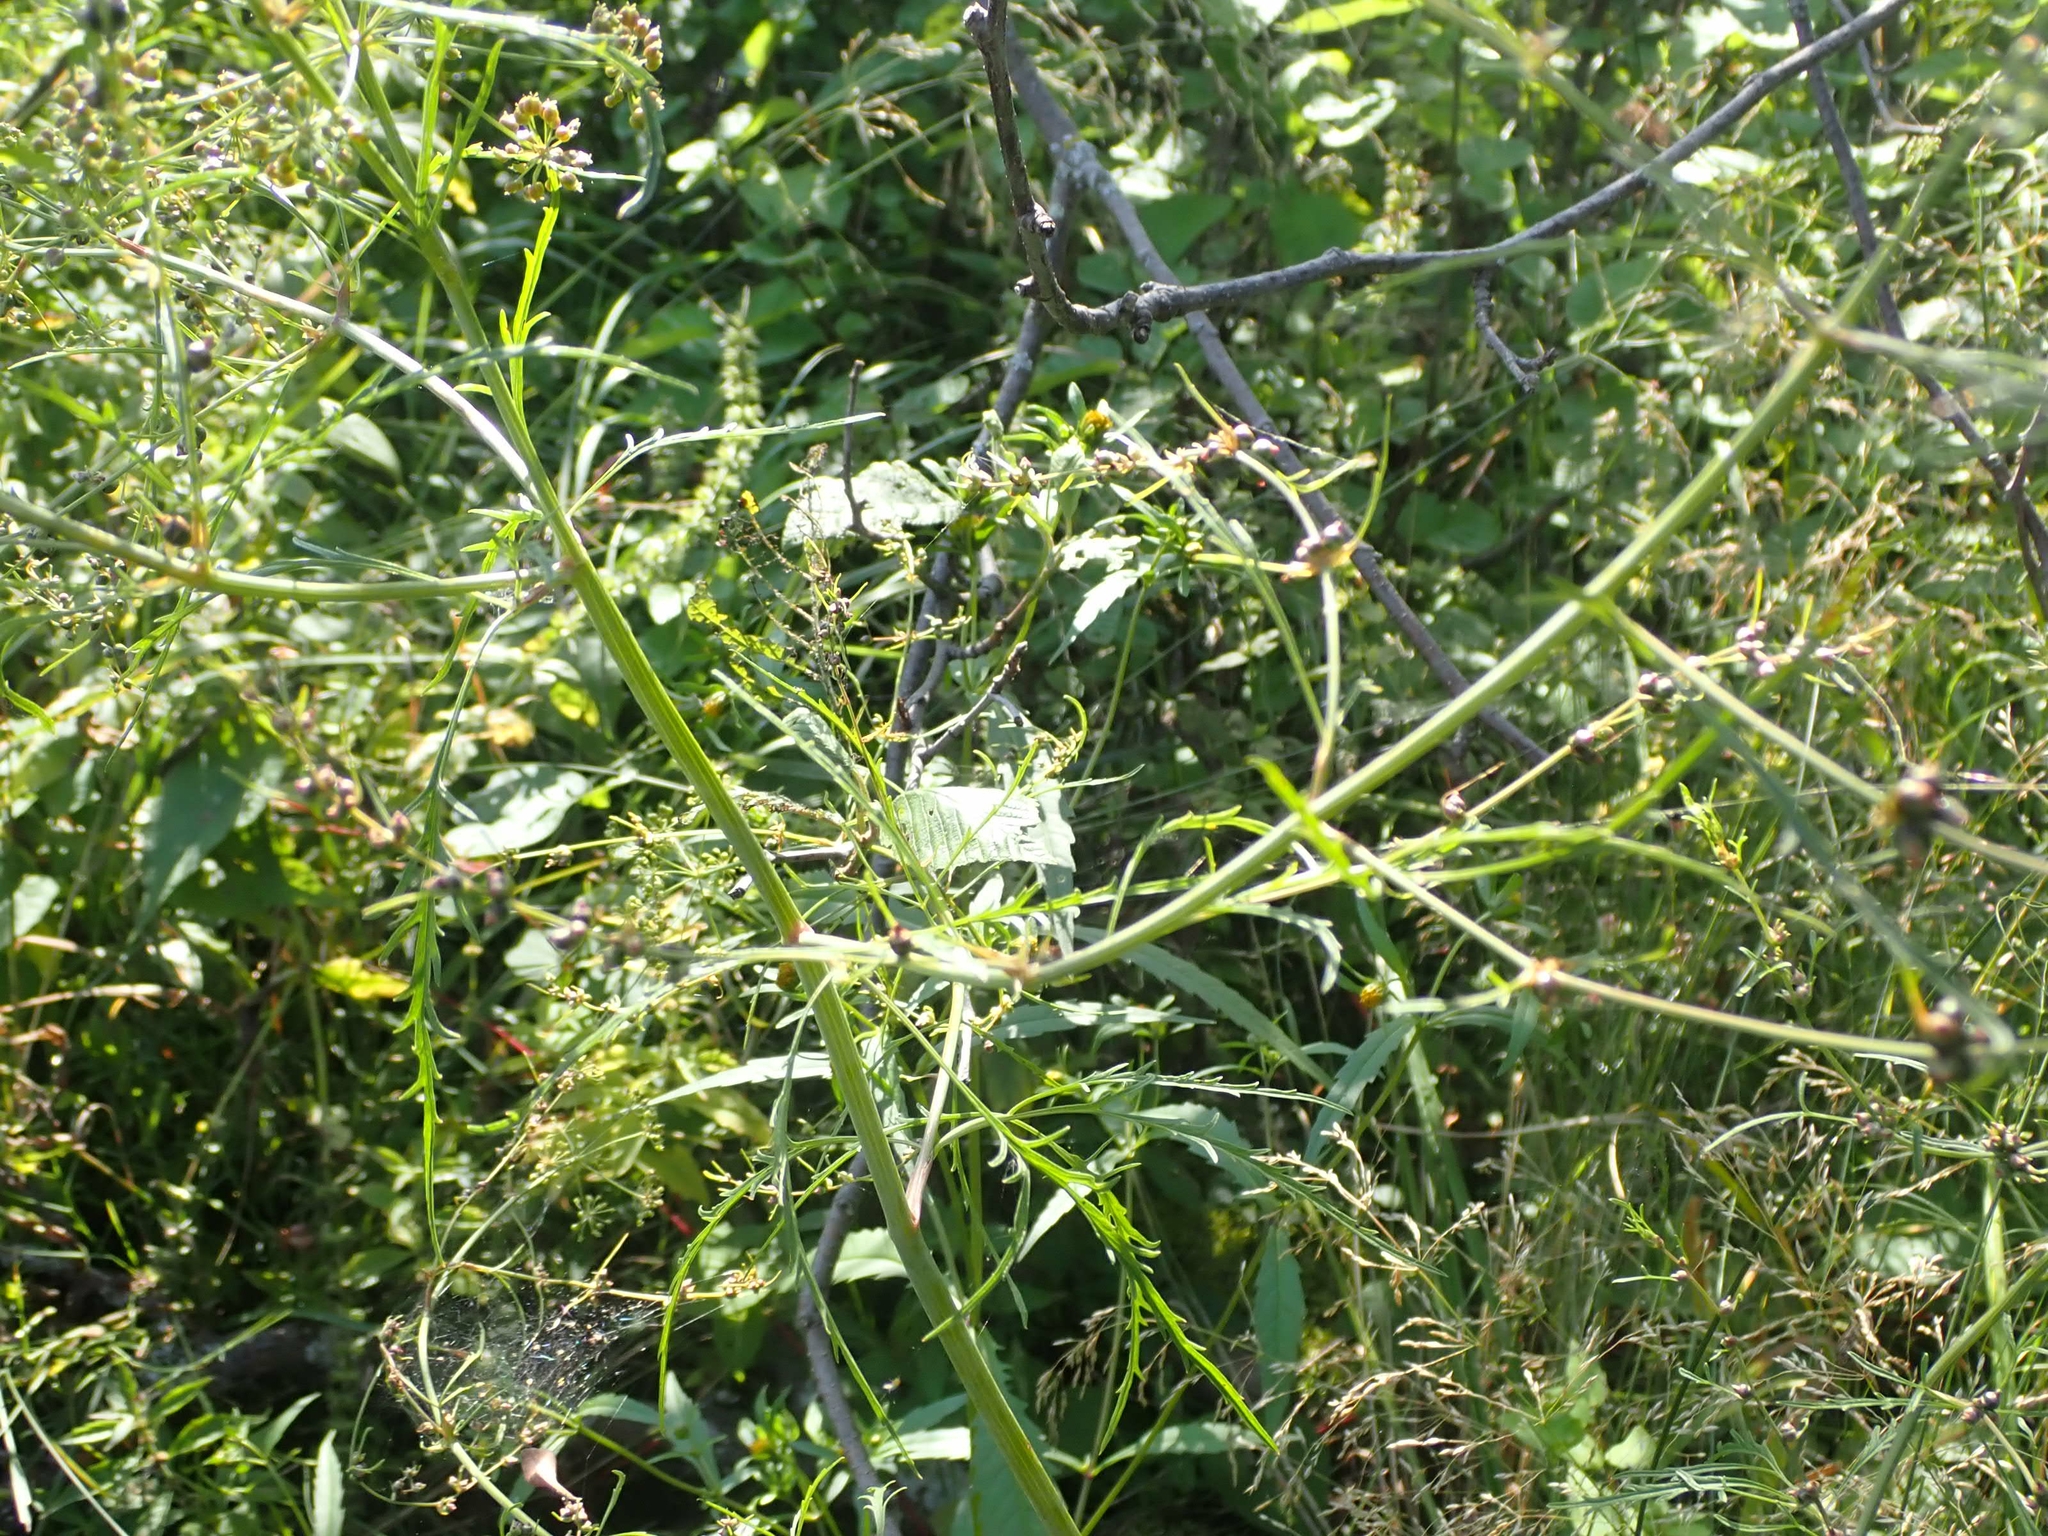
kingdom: Plantae
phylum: Tracheophyta
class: Magnoliopsida
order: Apiales
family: Apiaceae
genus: Cicuta
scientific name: Cicuta bulbifera
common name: Bulb-bearing water-hemlock
